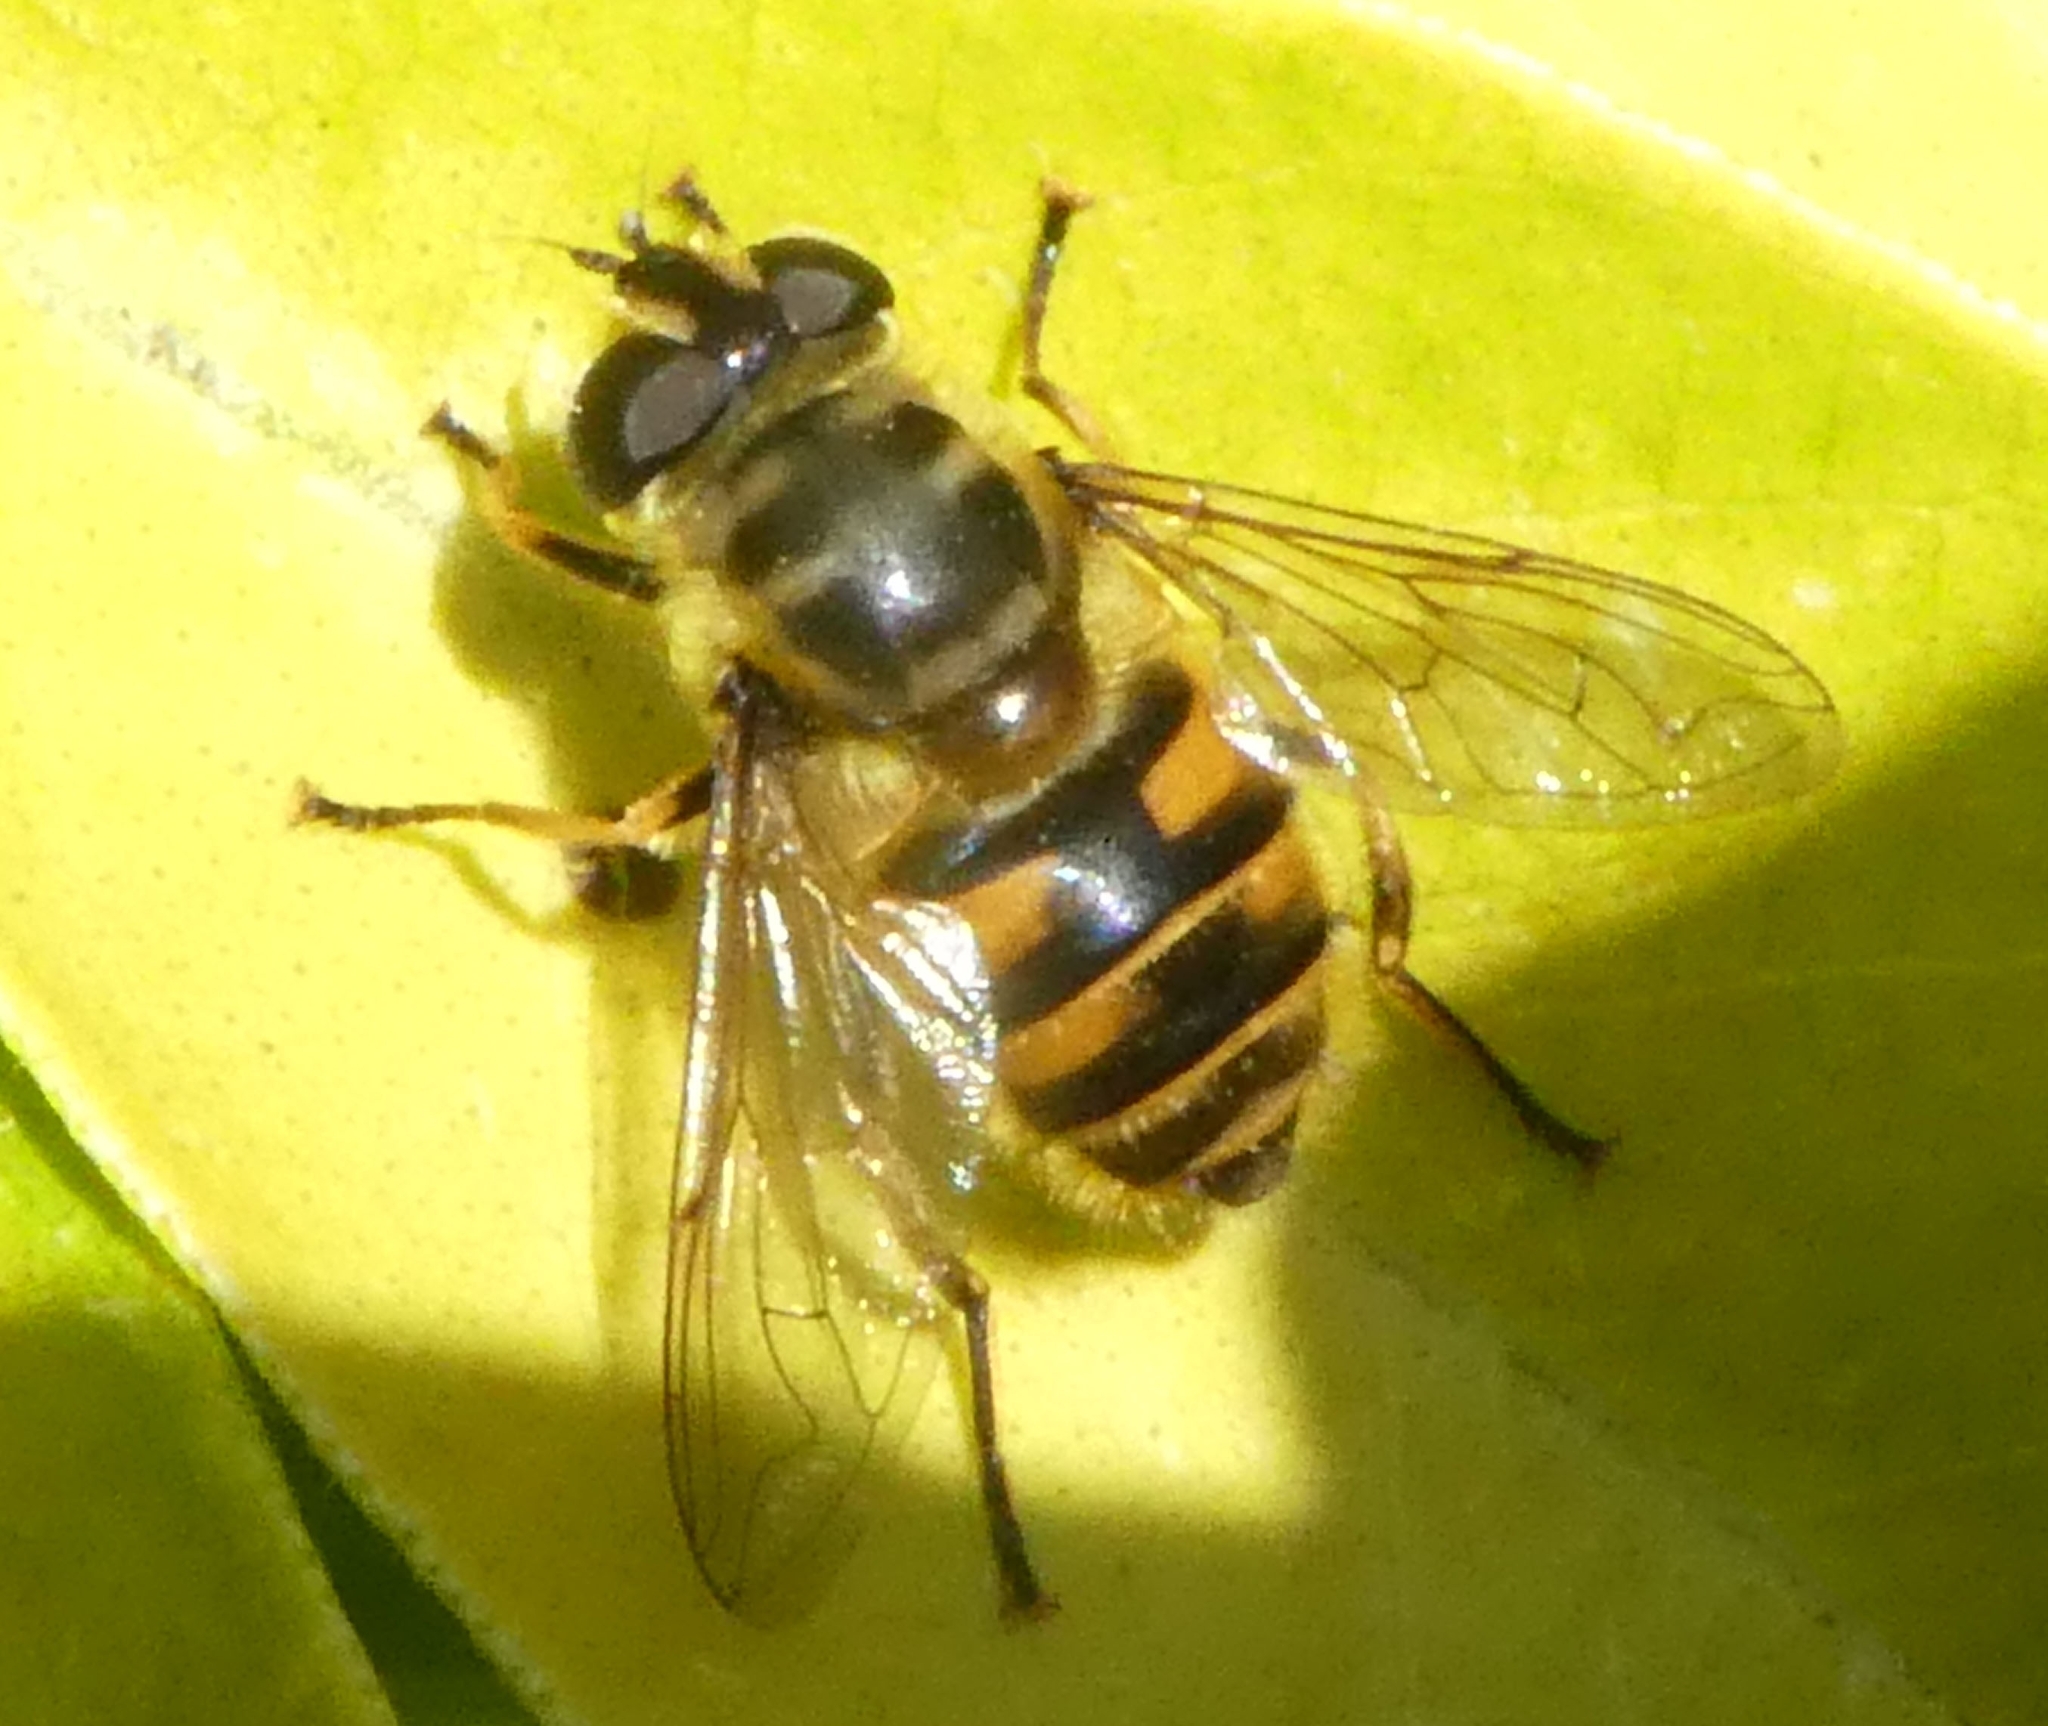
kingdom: Animalia
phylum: Arthropoda
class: Insecta
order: Diptera
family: Syrphidae
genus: Myathropa
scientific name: Myathropa florea
